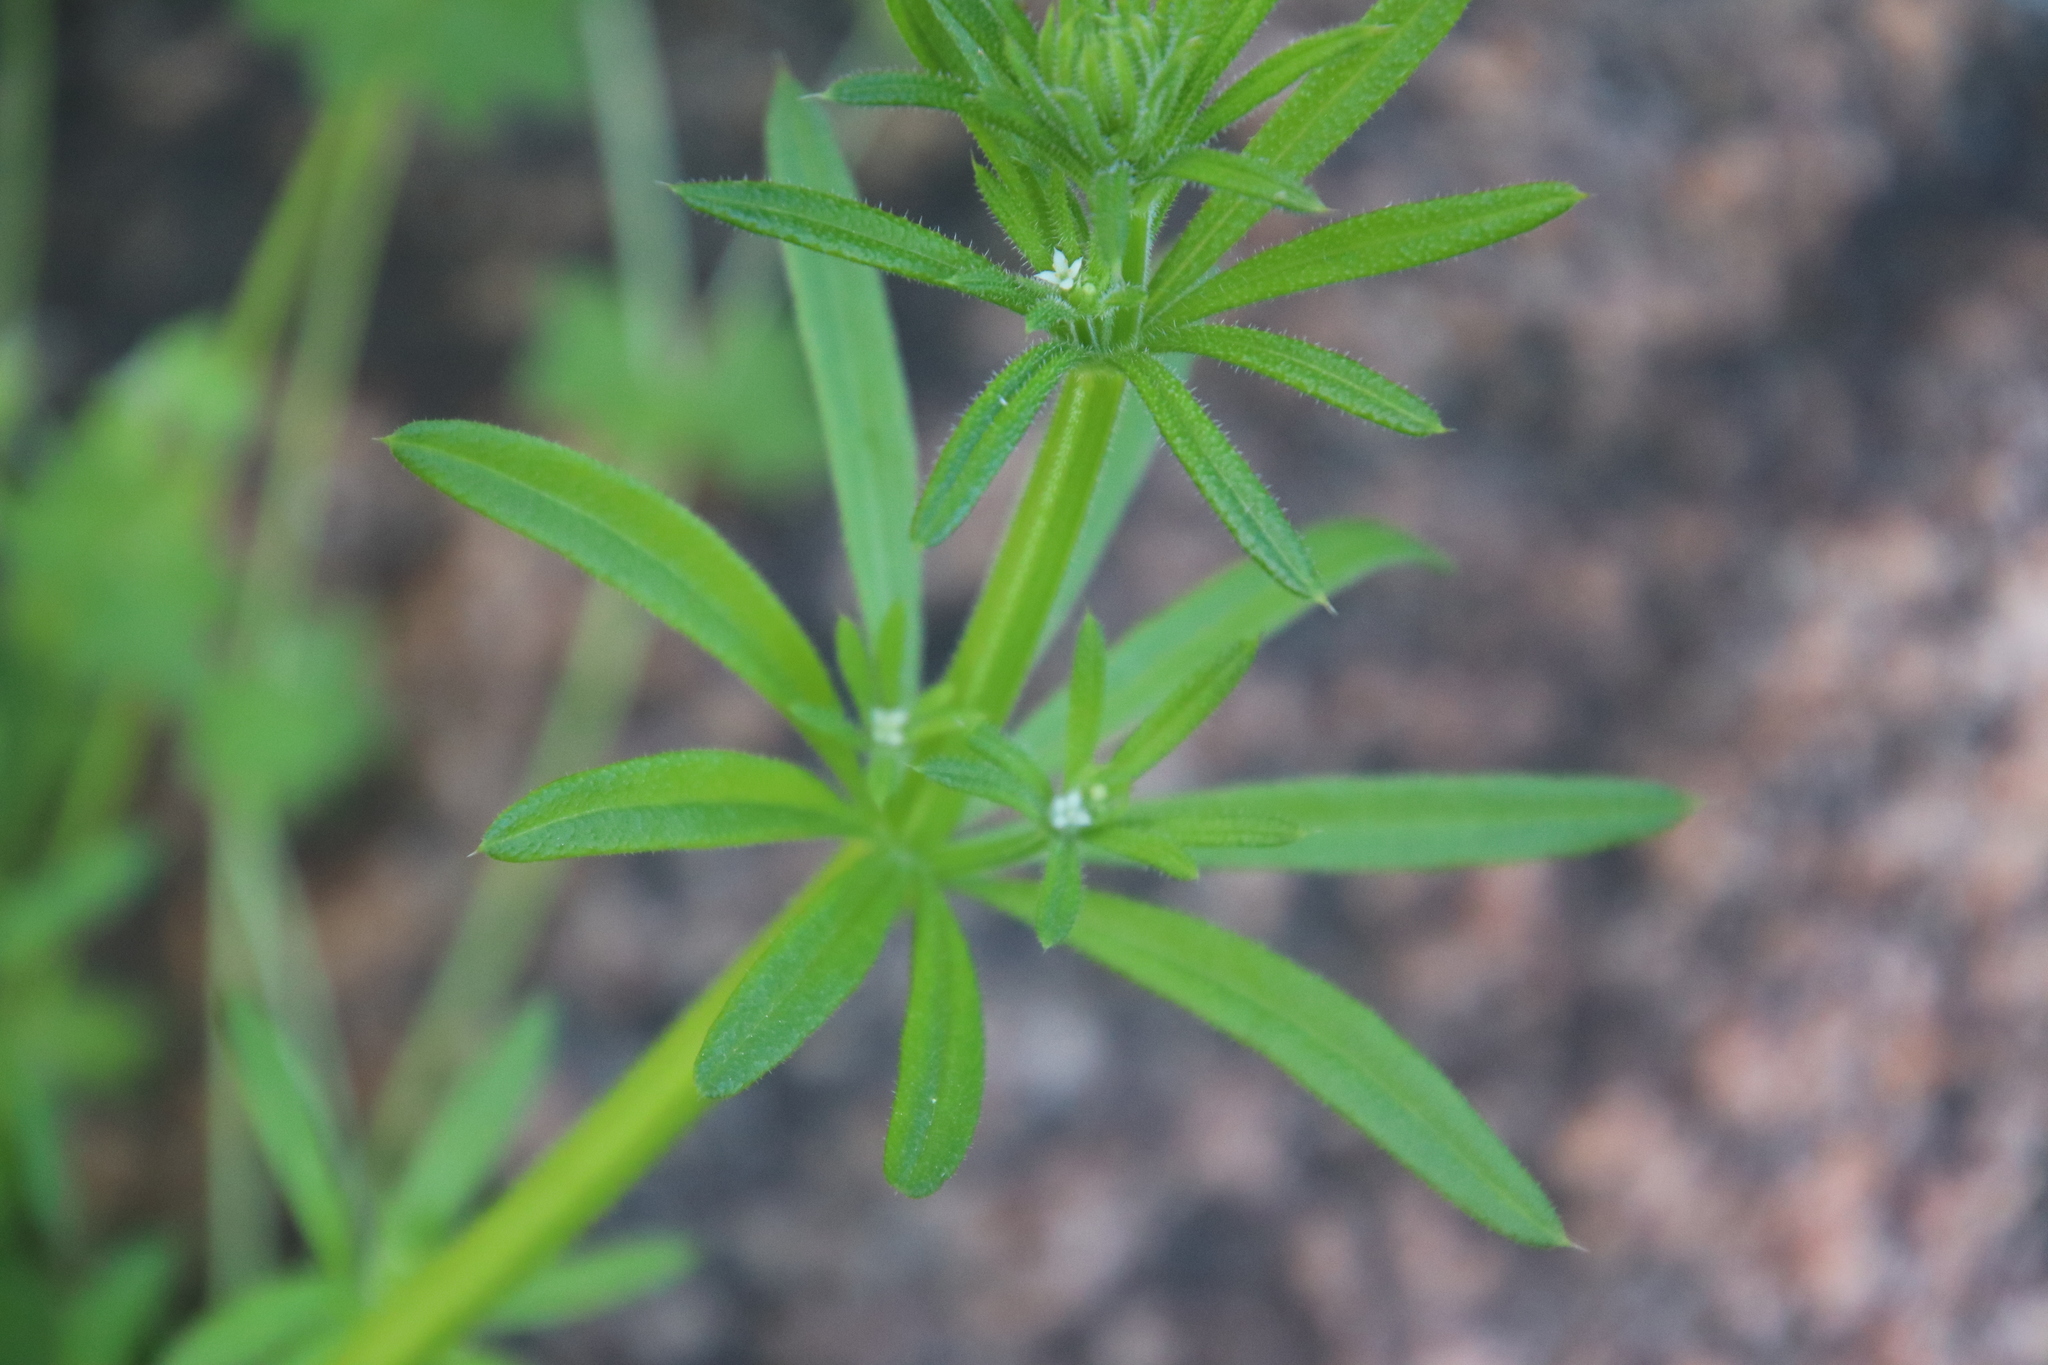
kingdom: Plantae
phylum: Tracheophyta
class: Magnoliopsida
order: Gentianales
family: Rubiaceae
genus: Galium
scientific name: Galium aparine
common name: Cleavers
